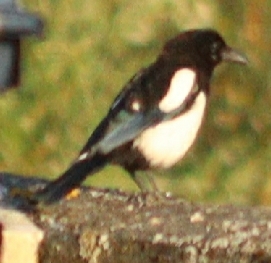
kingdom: Animalia
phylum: Chordata
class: Aves
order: Passeriformes
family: Corvidae
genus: Pica
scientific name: Pica pica
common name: Eurasian magpie
